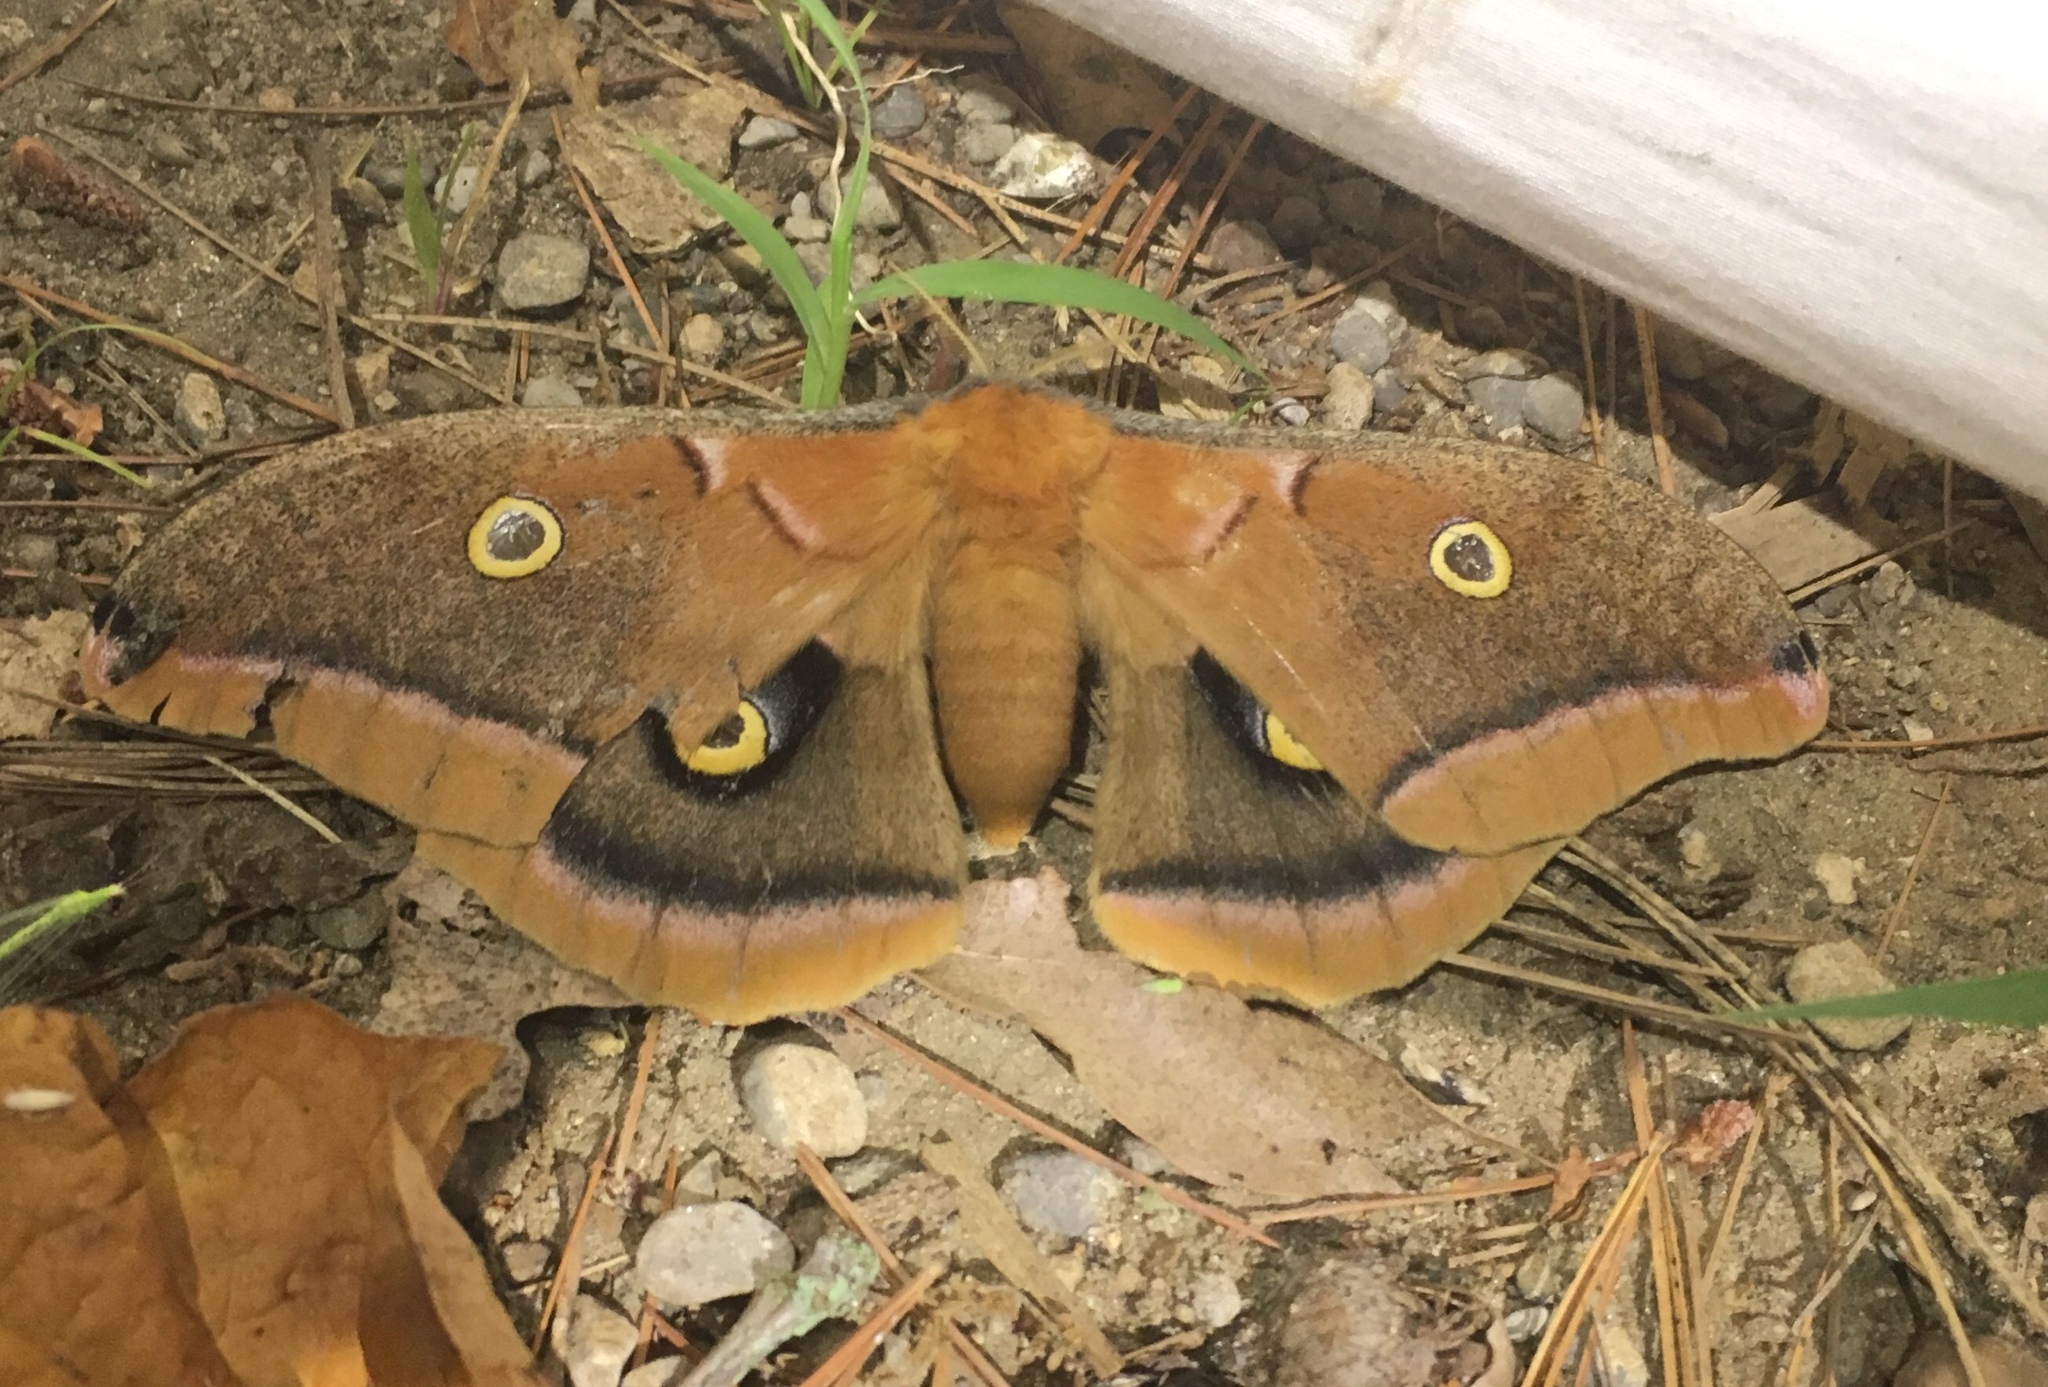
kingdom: Animalia
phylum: Arthropoda
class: Insecta
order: Lepidoptera
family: Saturniidae
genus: Antheraea
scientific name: Antheraea polyphemus
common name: Polyphemus moth
